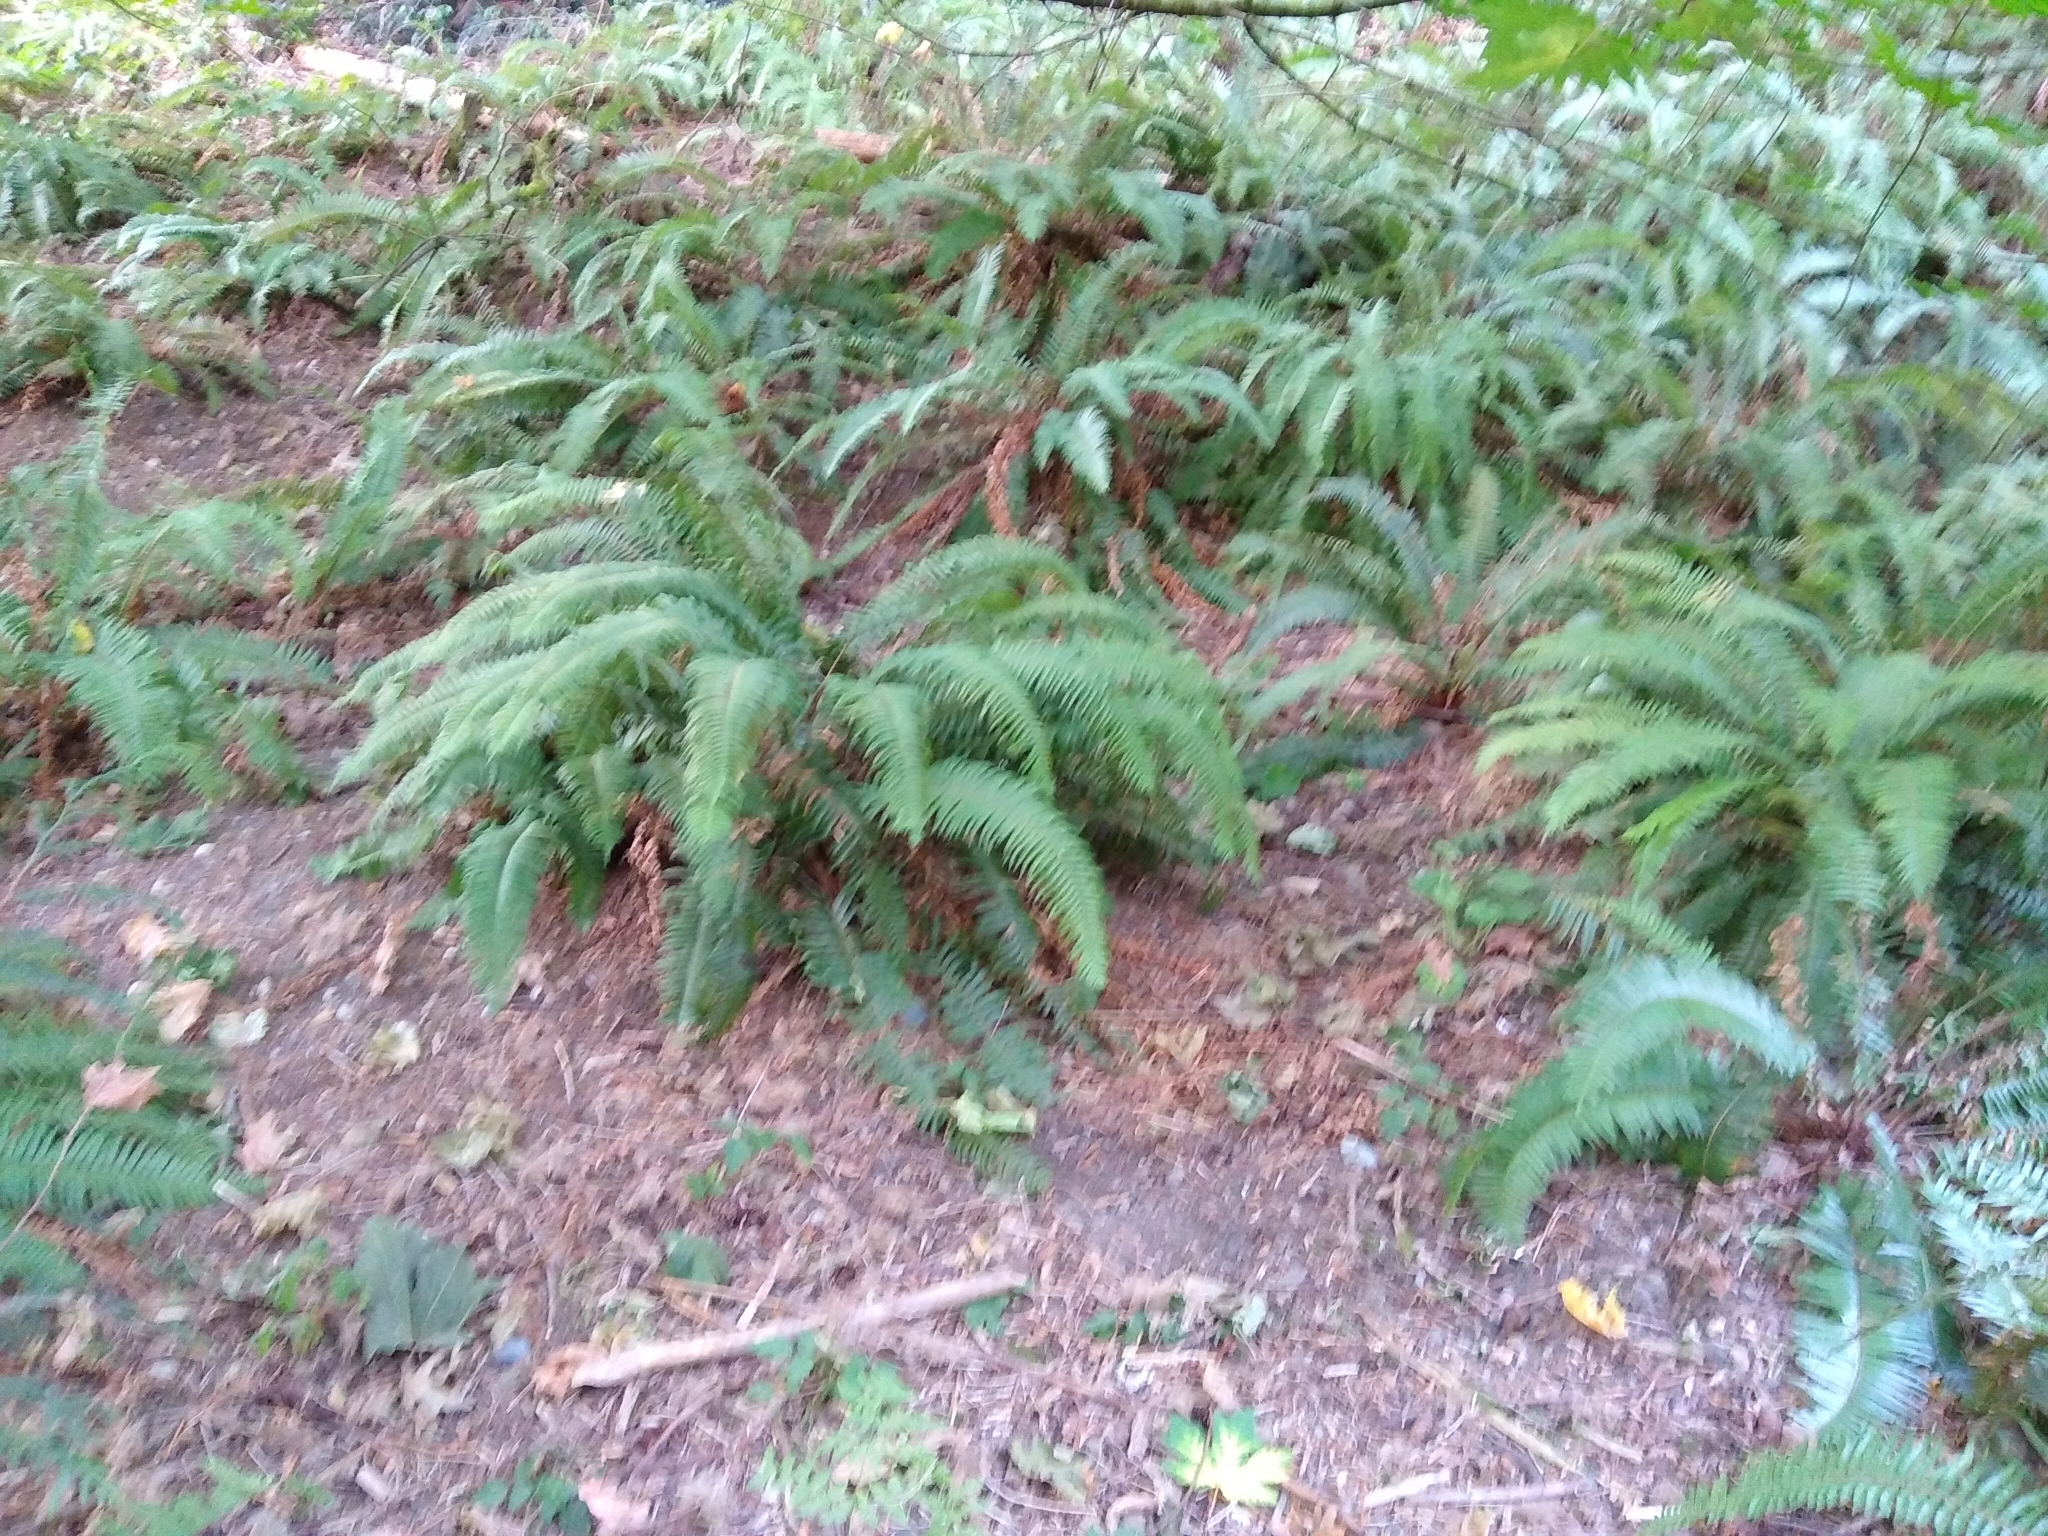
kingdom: Plantae
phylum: Tracheophyta
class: Polypodiopsida
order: Polypodiales
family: Dryopteridaceae
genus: Polystichum
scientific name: Polystichum munitum
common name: Western sword-fern
